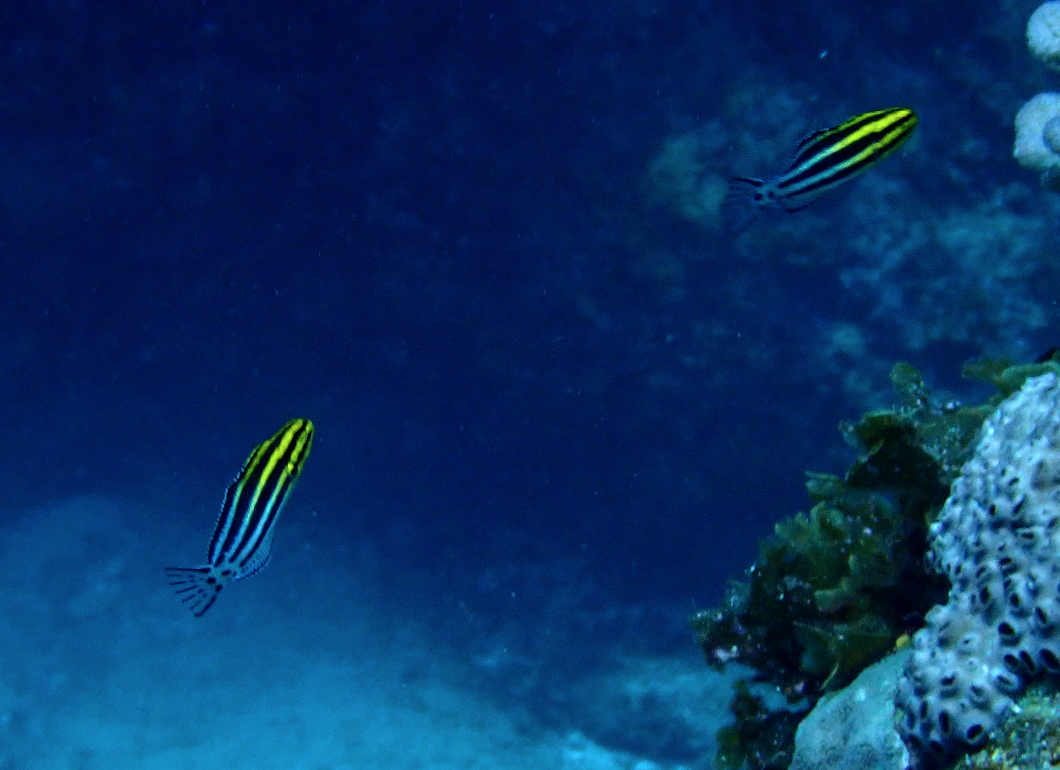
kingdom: Animalia
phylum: Chordata
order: Perciformes
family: Blenniidae
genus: Meiacanthus
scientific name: Meiacanthus grammistes
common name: Grammistes blenny
